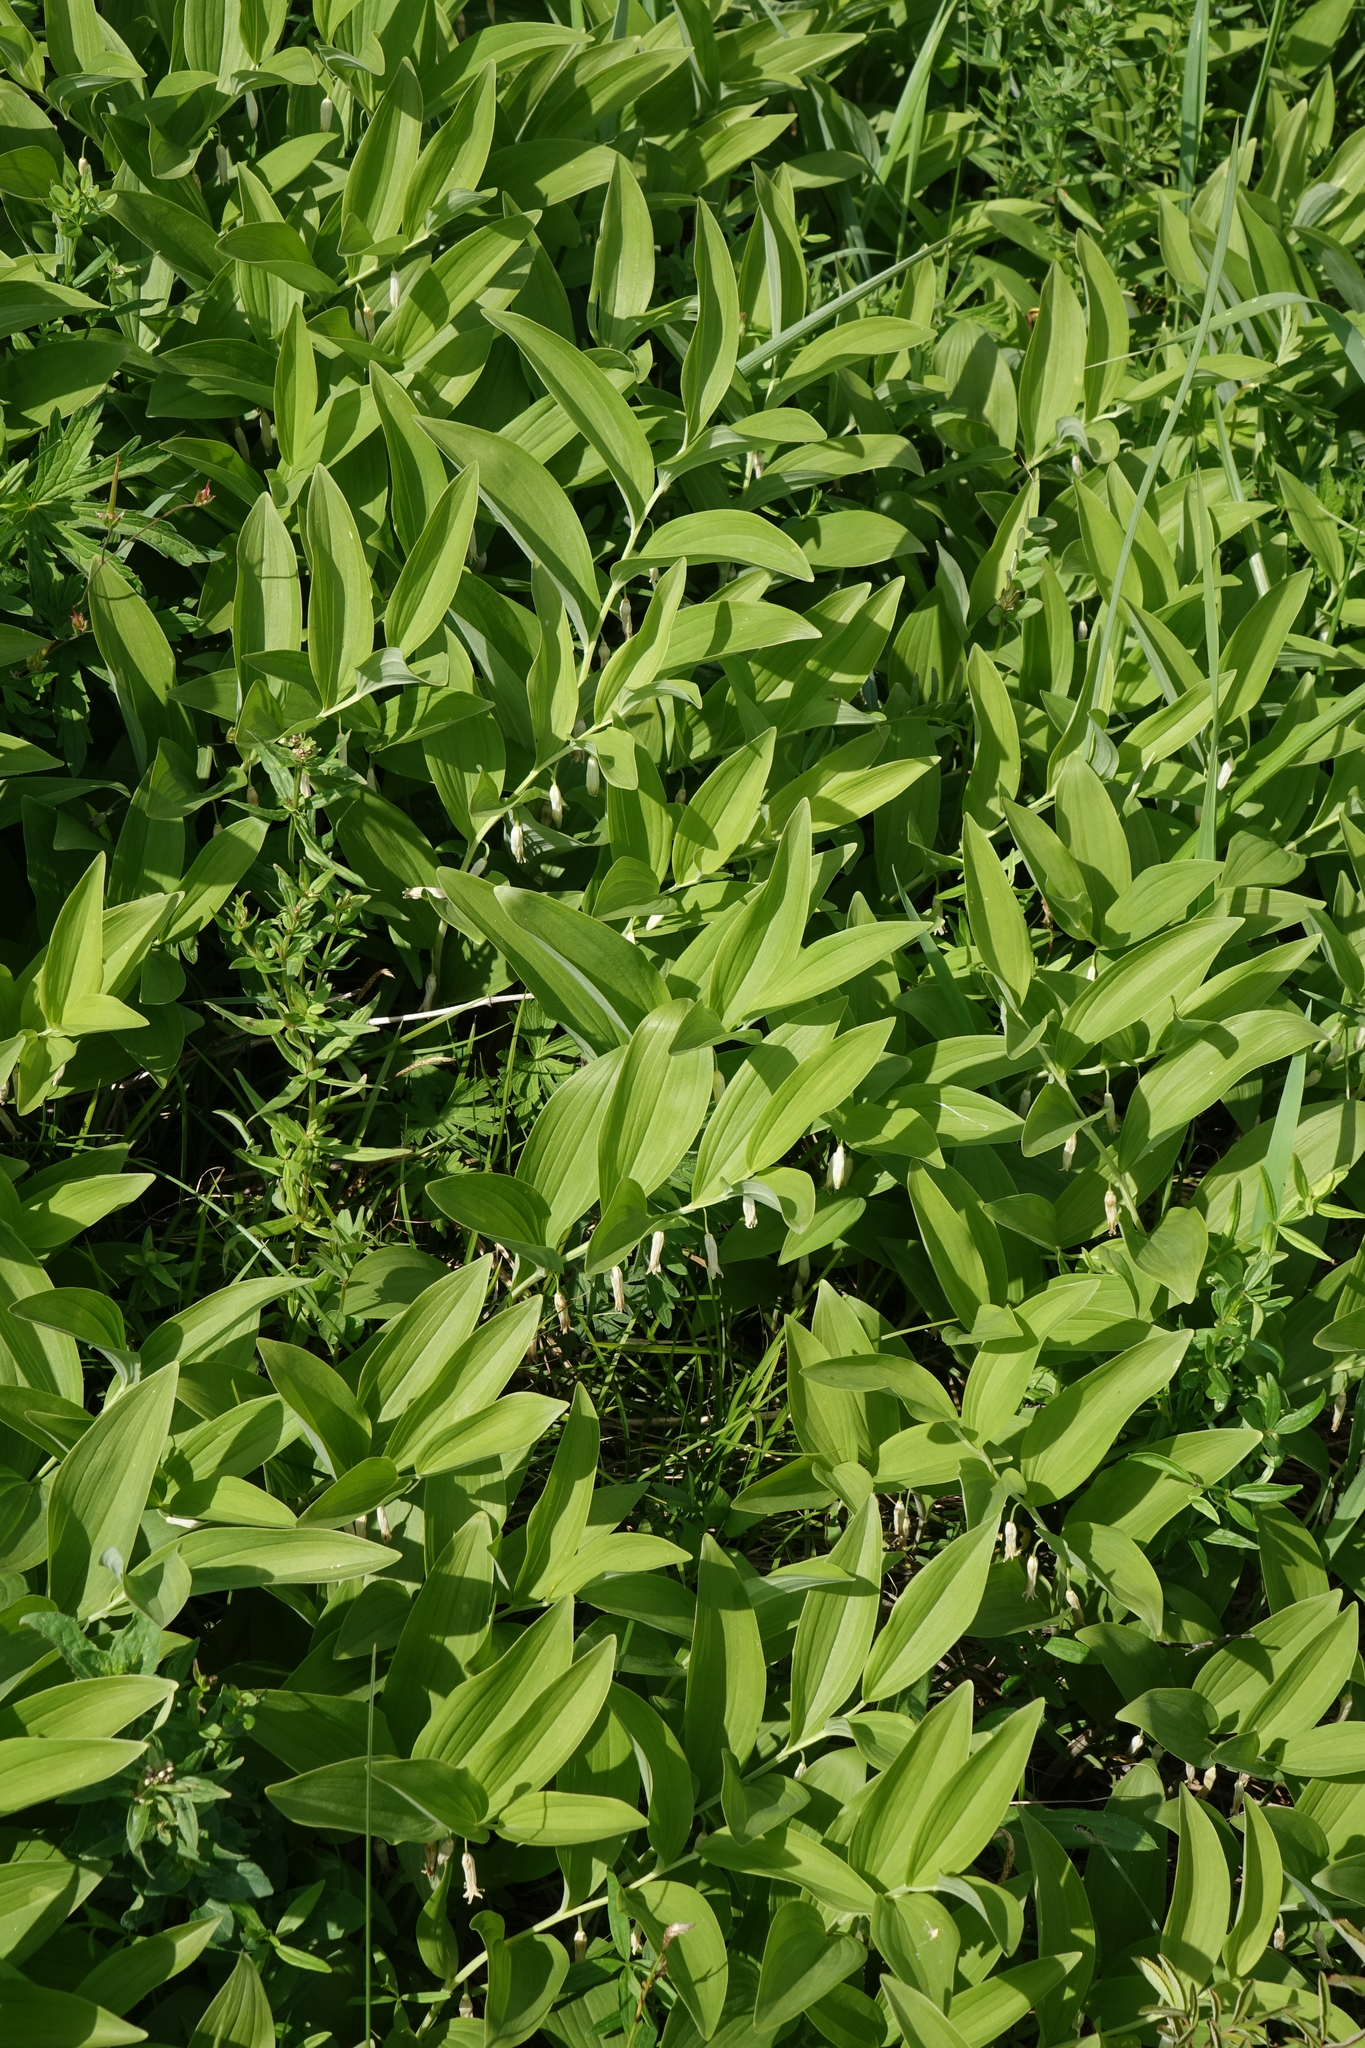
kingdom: Plantae
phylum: Tracheophyta
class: Liliopsida
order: Asparagales
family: Asparagaceae
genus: Polygonatum
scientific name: Polygonatum odoratum
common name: Angular solomon's-seal
